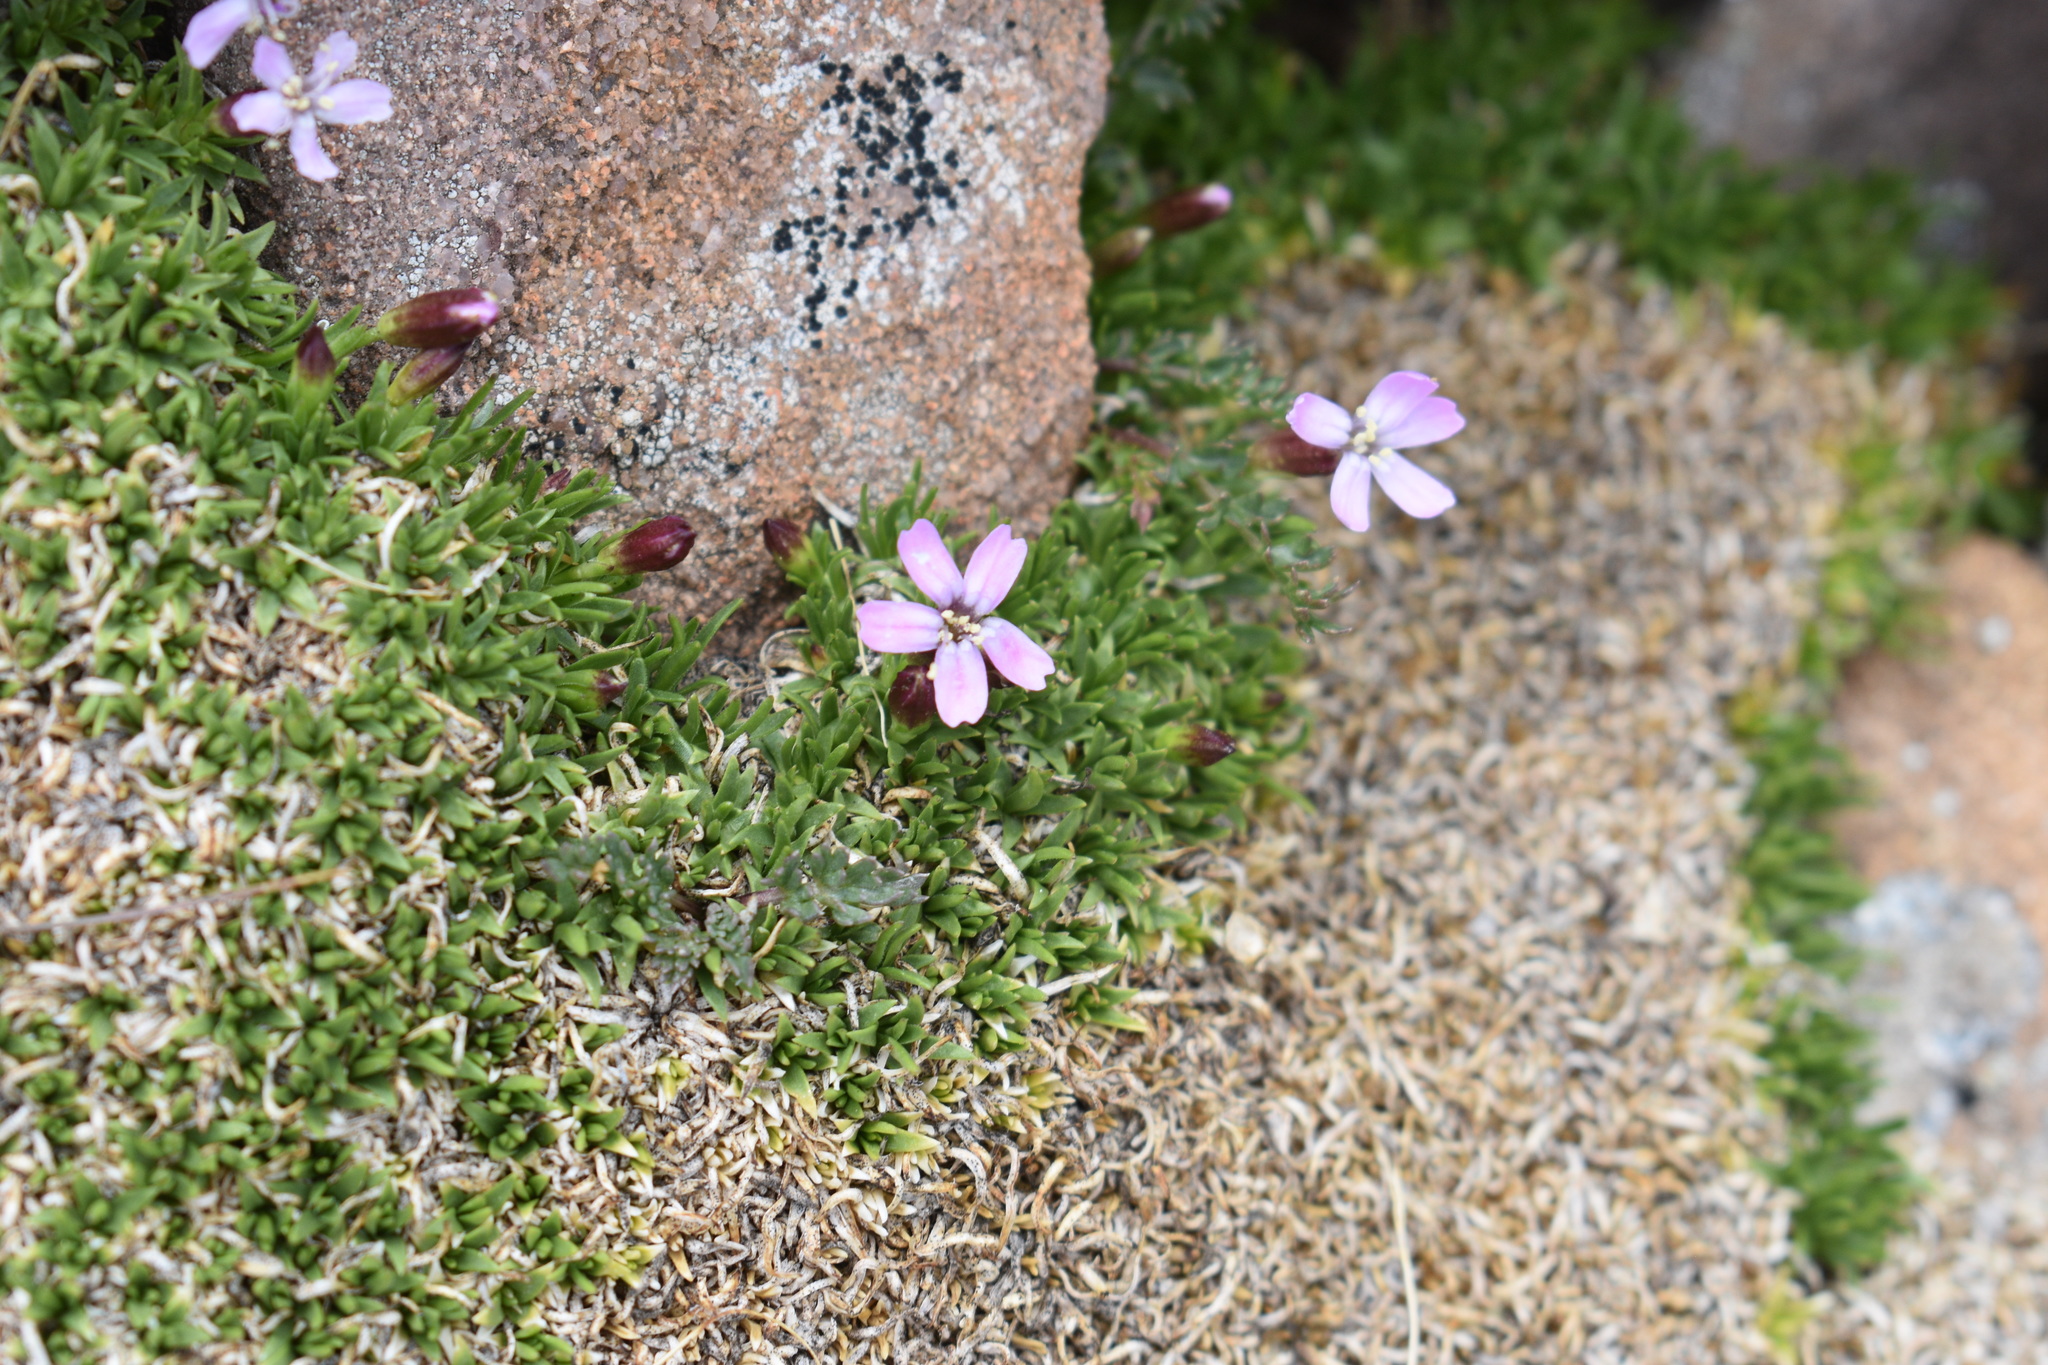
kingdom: Plantae
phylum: Tracheophyta
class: Magnoliopsida
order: Caryophyllales
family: Caryophyllaceae
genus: Silene
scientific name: Silene acaulis
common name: Moss campion
